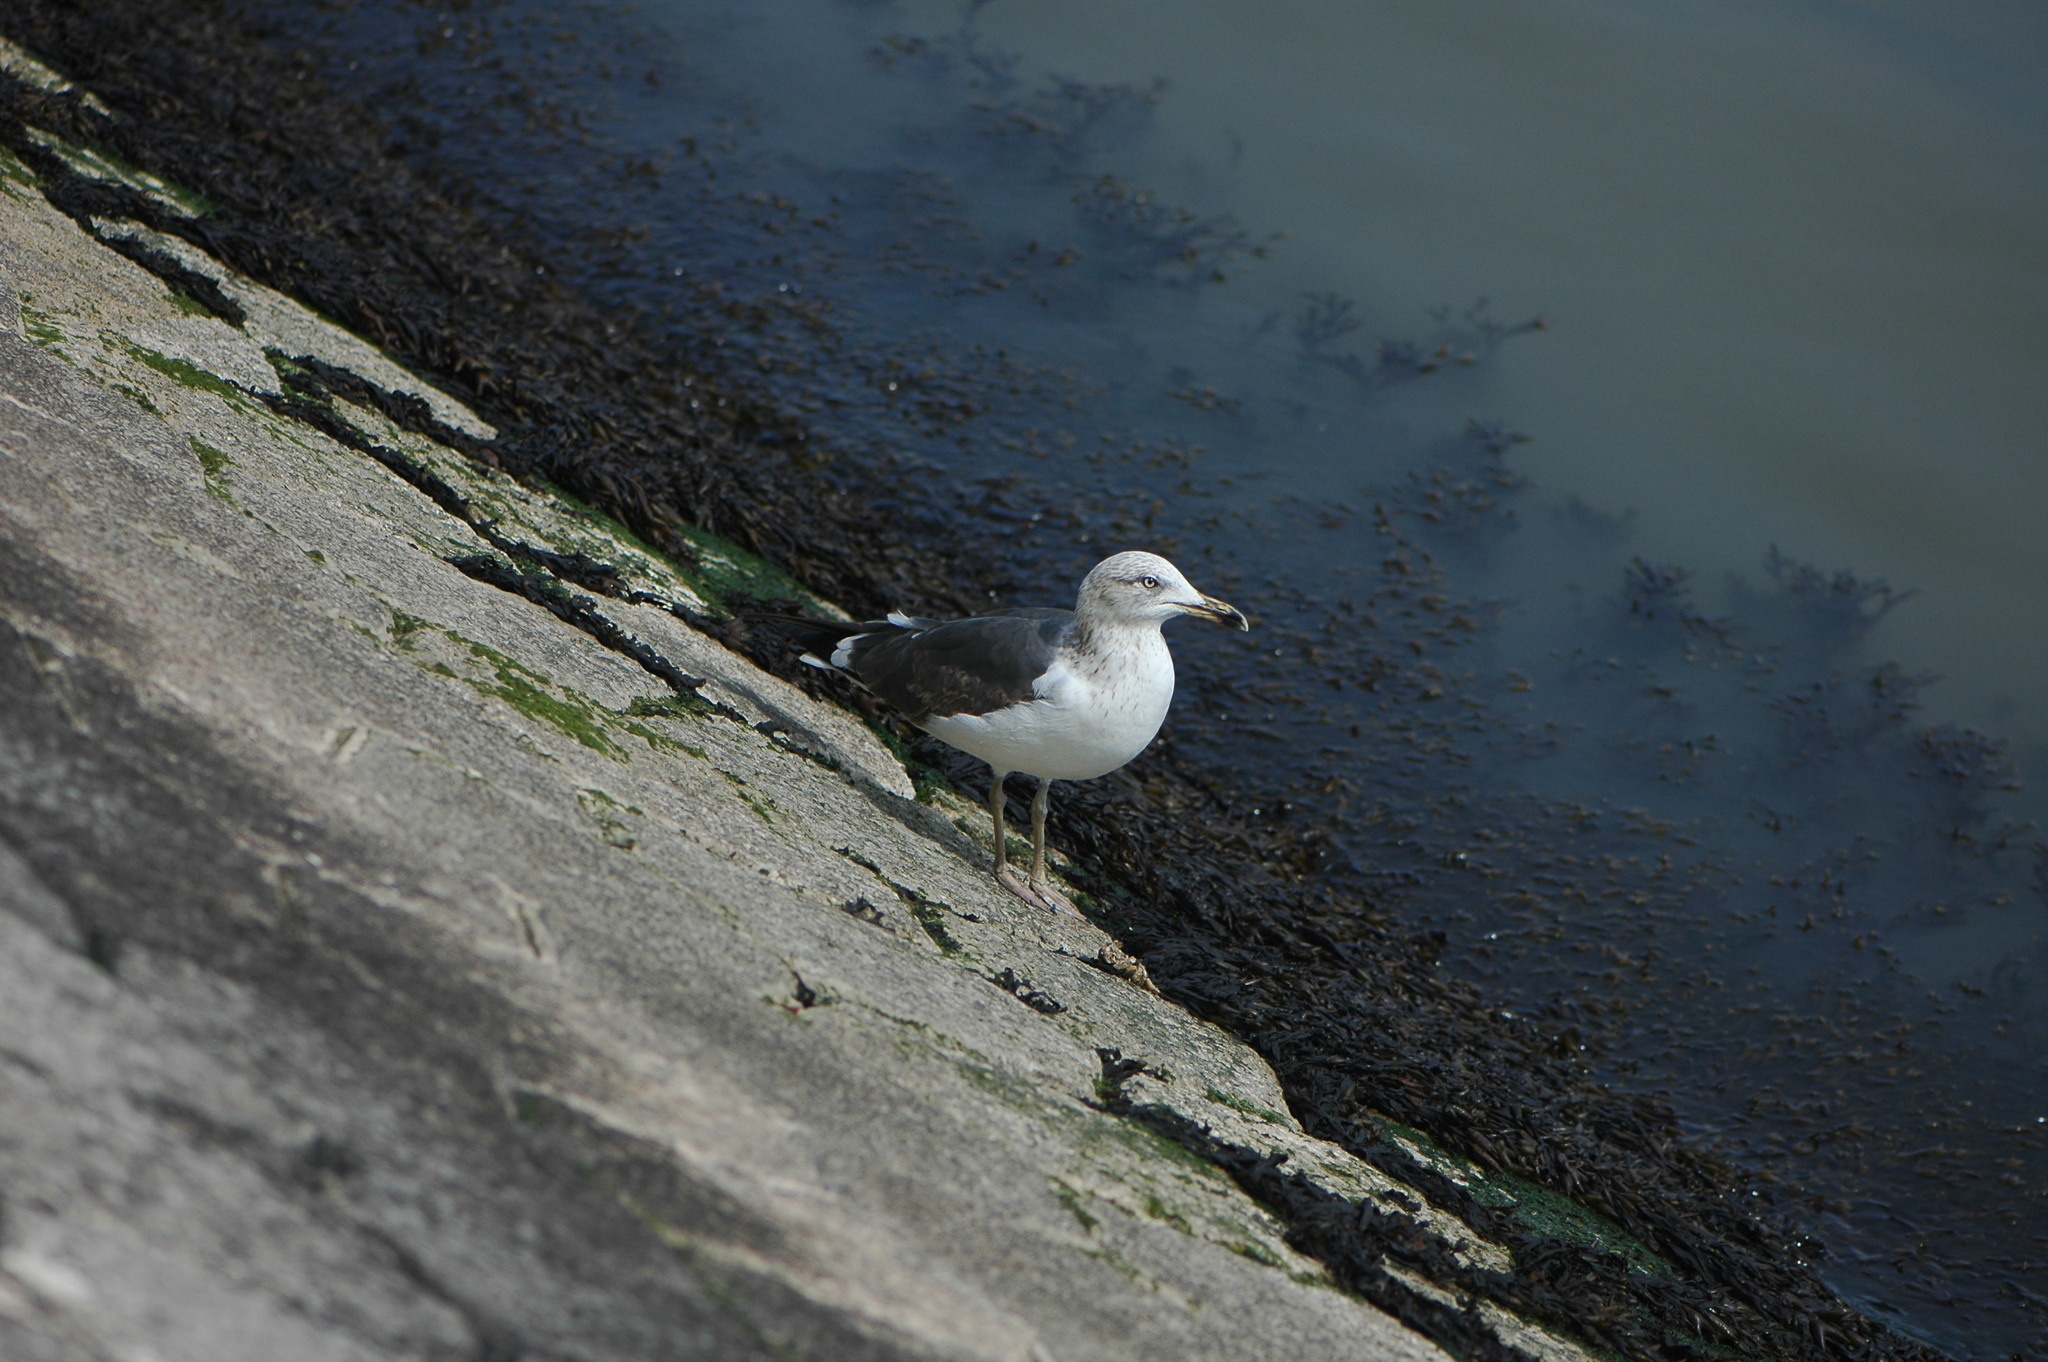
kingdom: Animalia
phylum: Chordata
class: Aves
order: Charadriiformes
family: Laridae
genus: Larus
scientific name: Larus fuscus
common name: Lesser black-backed gull
